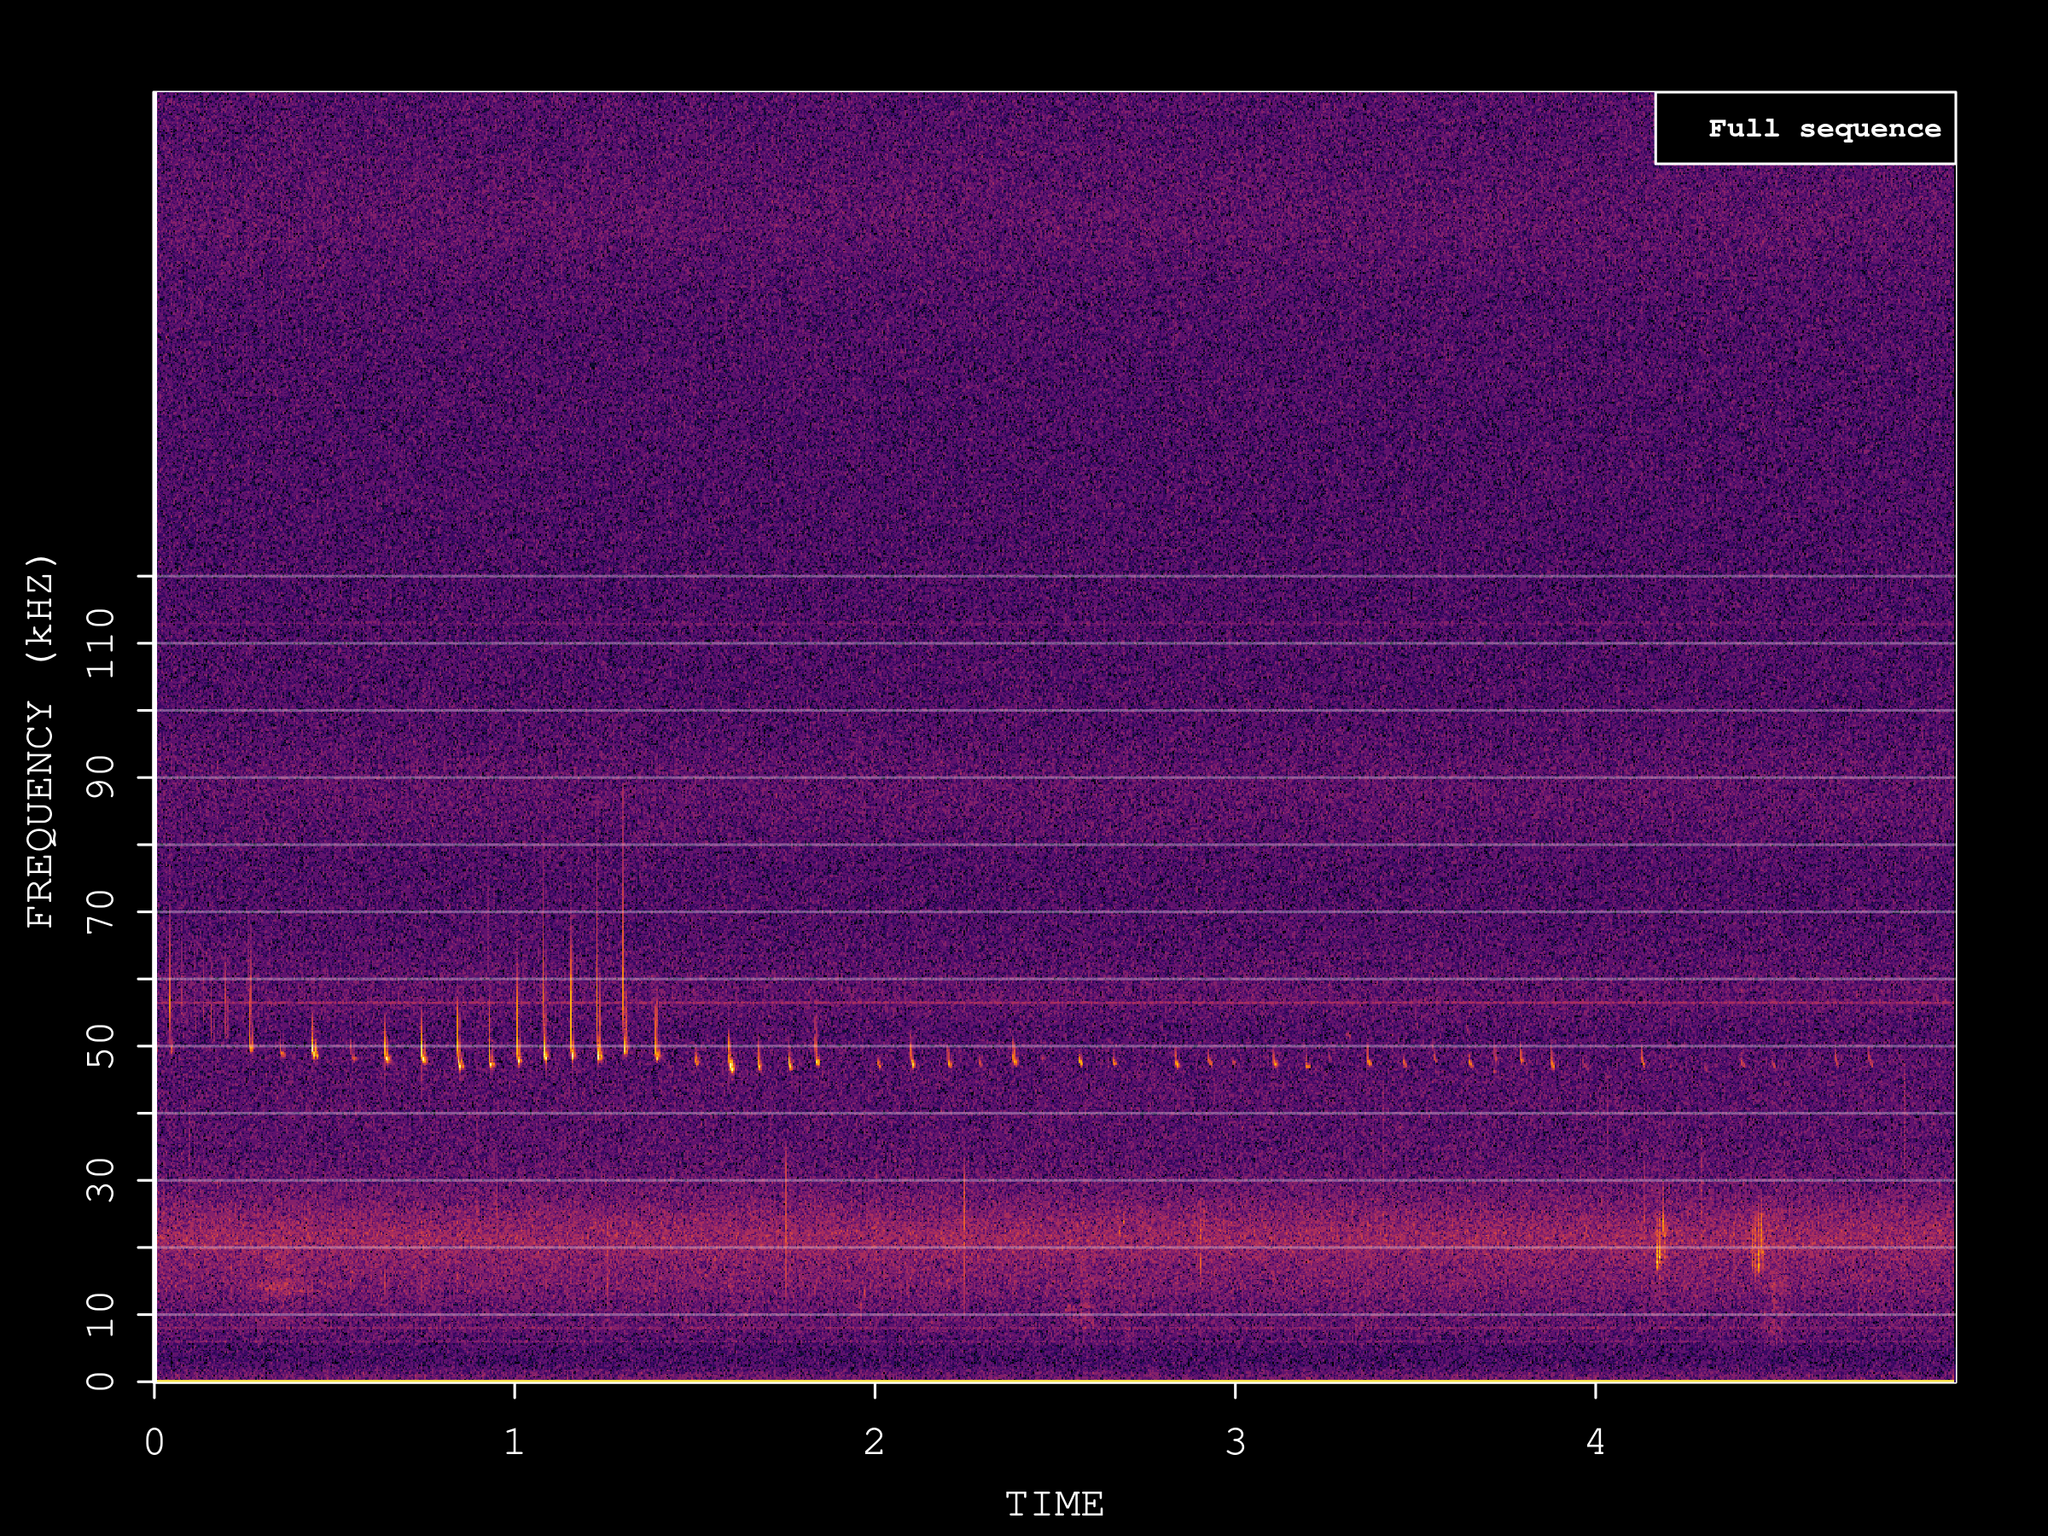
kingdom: Animalia
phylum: Chordata
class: Mammalia
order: Chiroptera
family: Vespertilionidae
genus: Pipistrellus
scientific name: Pipistrellus pipistrellus
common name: Common pipistrelle
